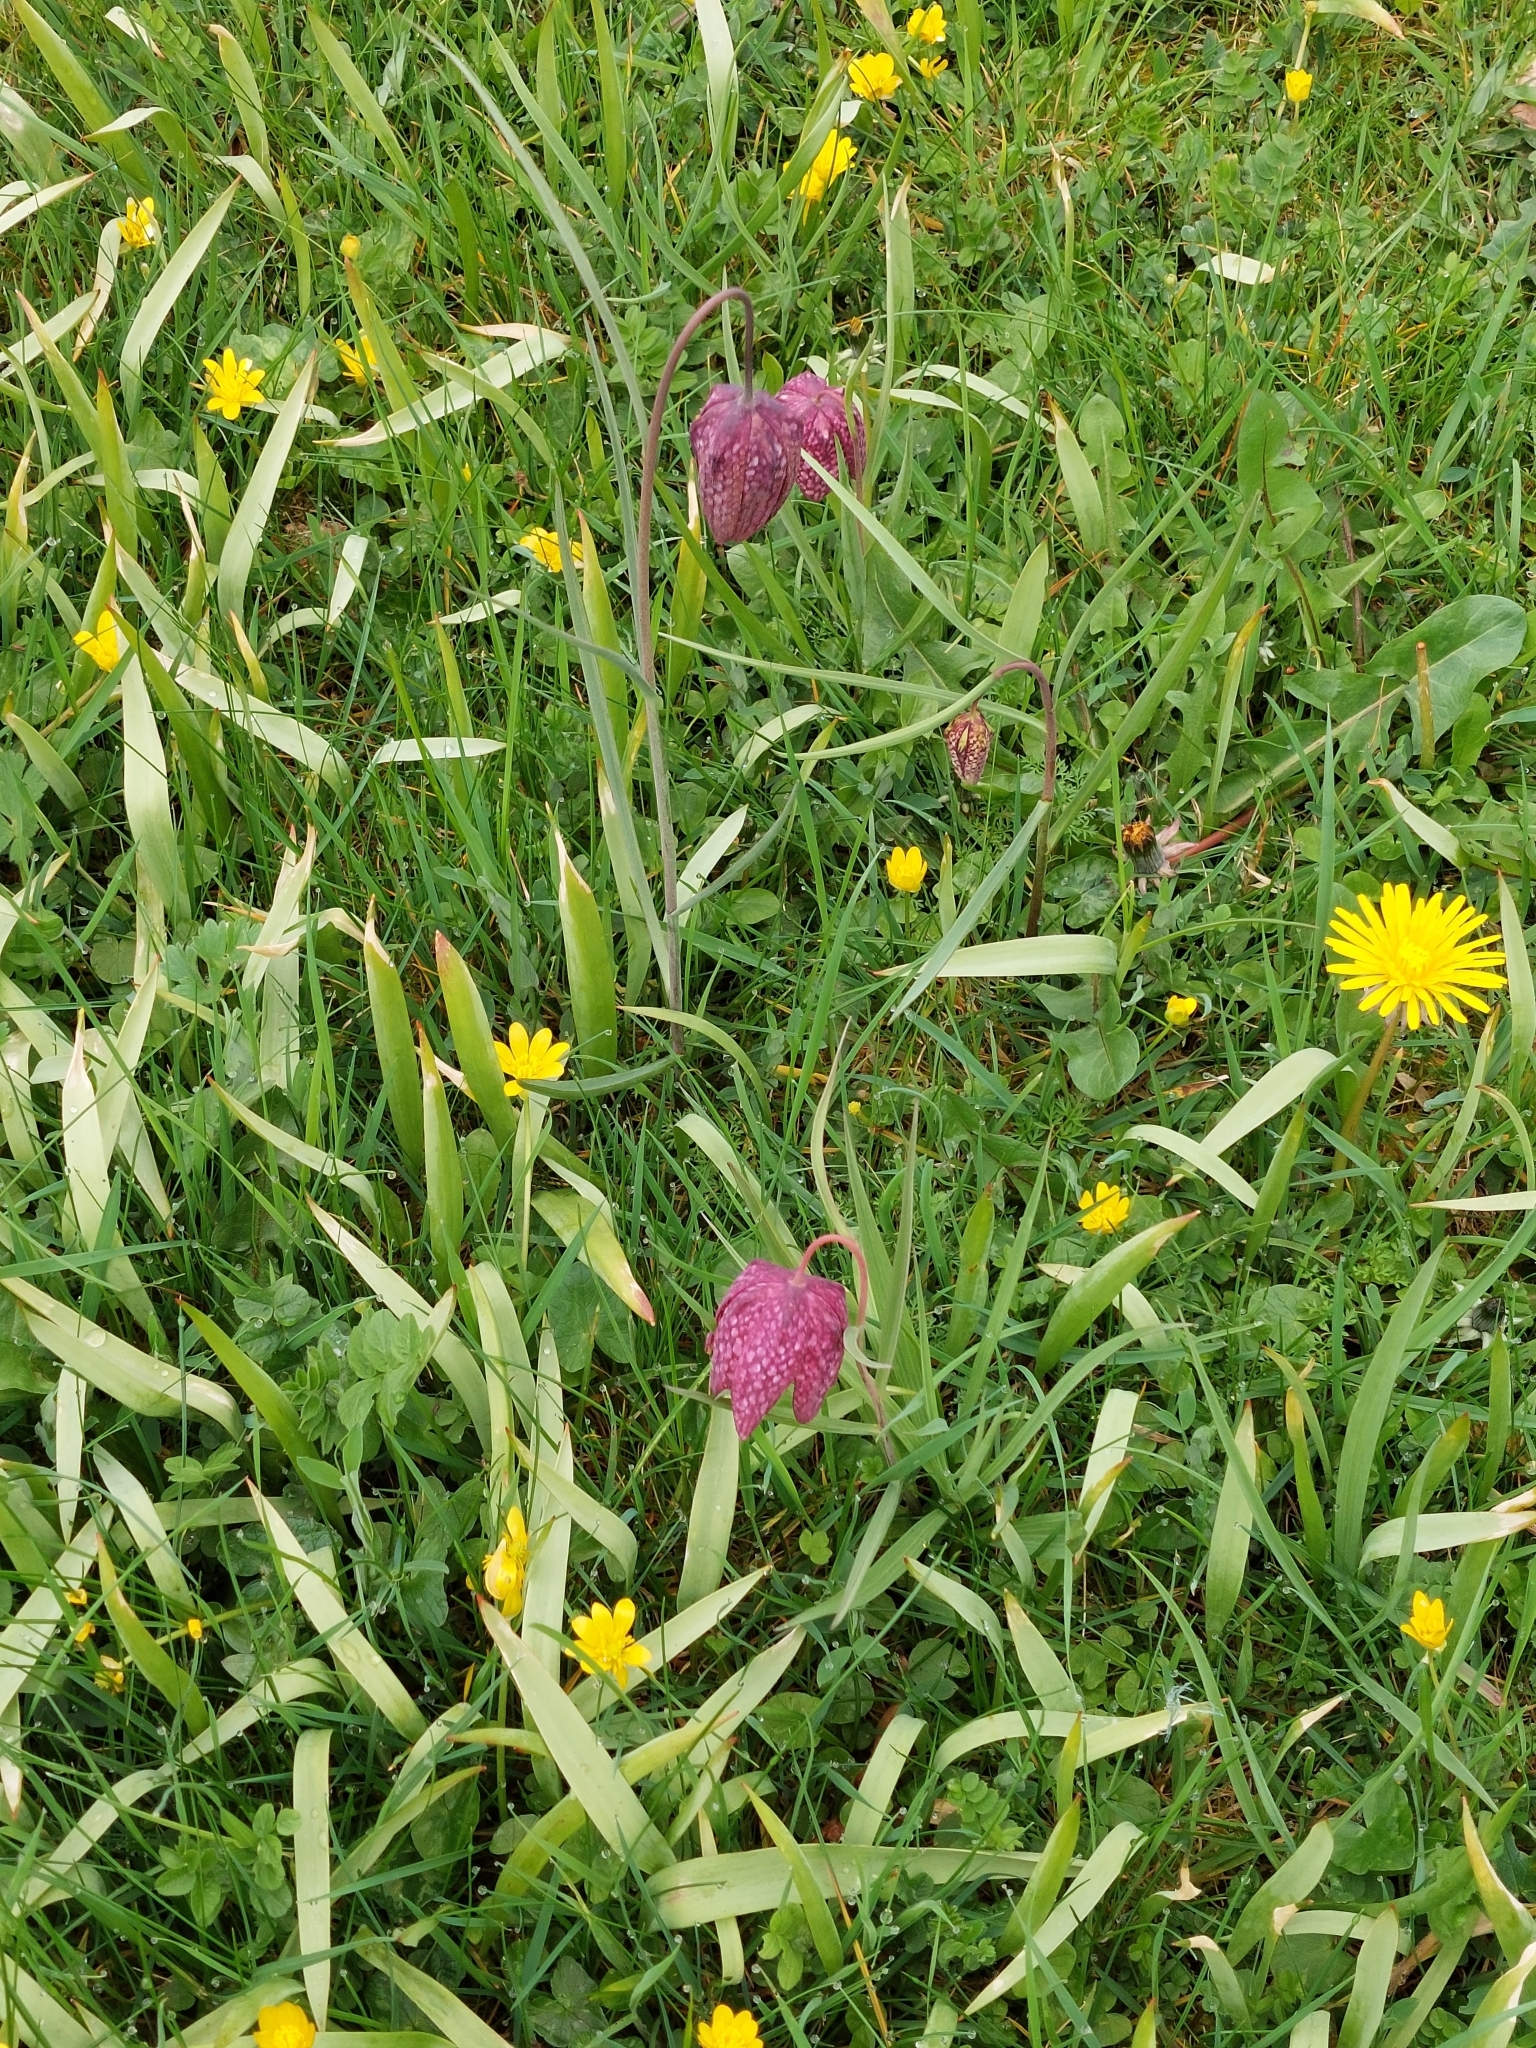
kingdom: Plantae
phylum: Tracheophyta
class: Liliopsida
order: Liliales
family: Liliaceae
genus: Fritillaria
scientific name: Fritillaria meleagris
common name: Fritillary
